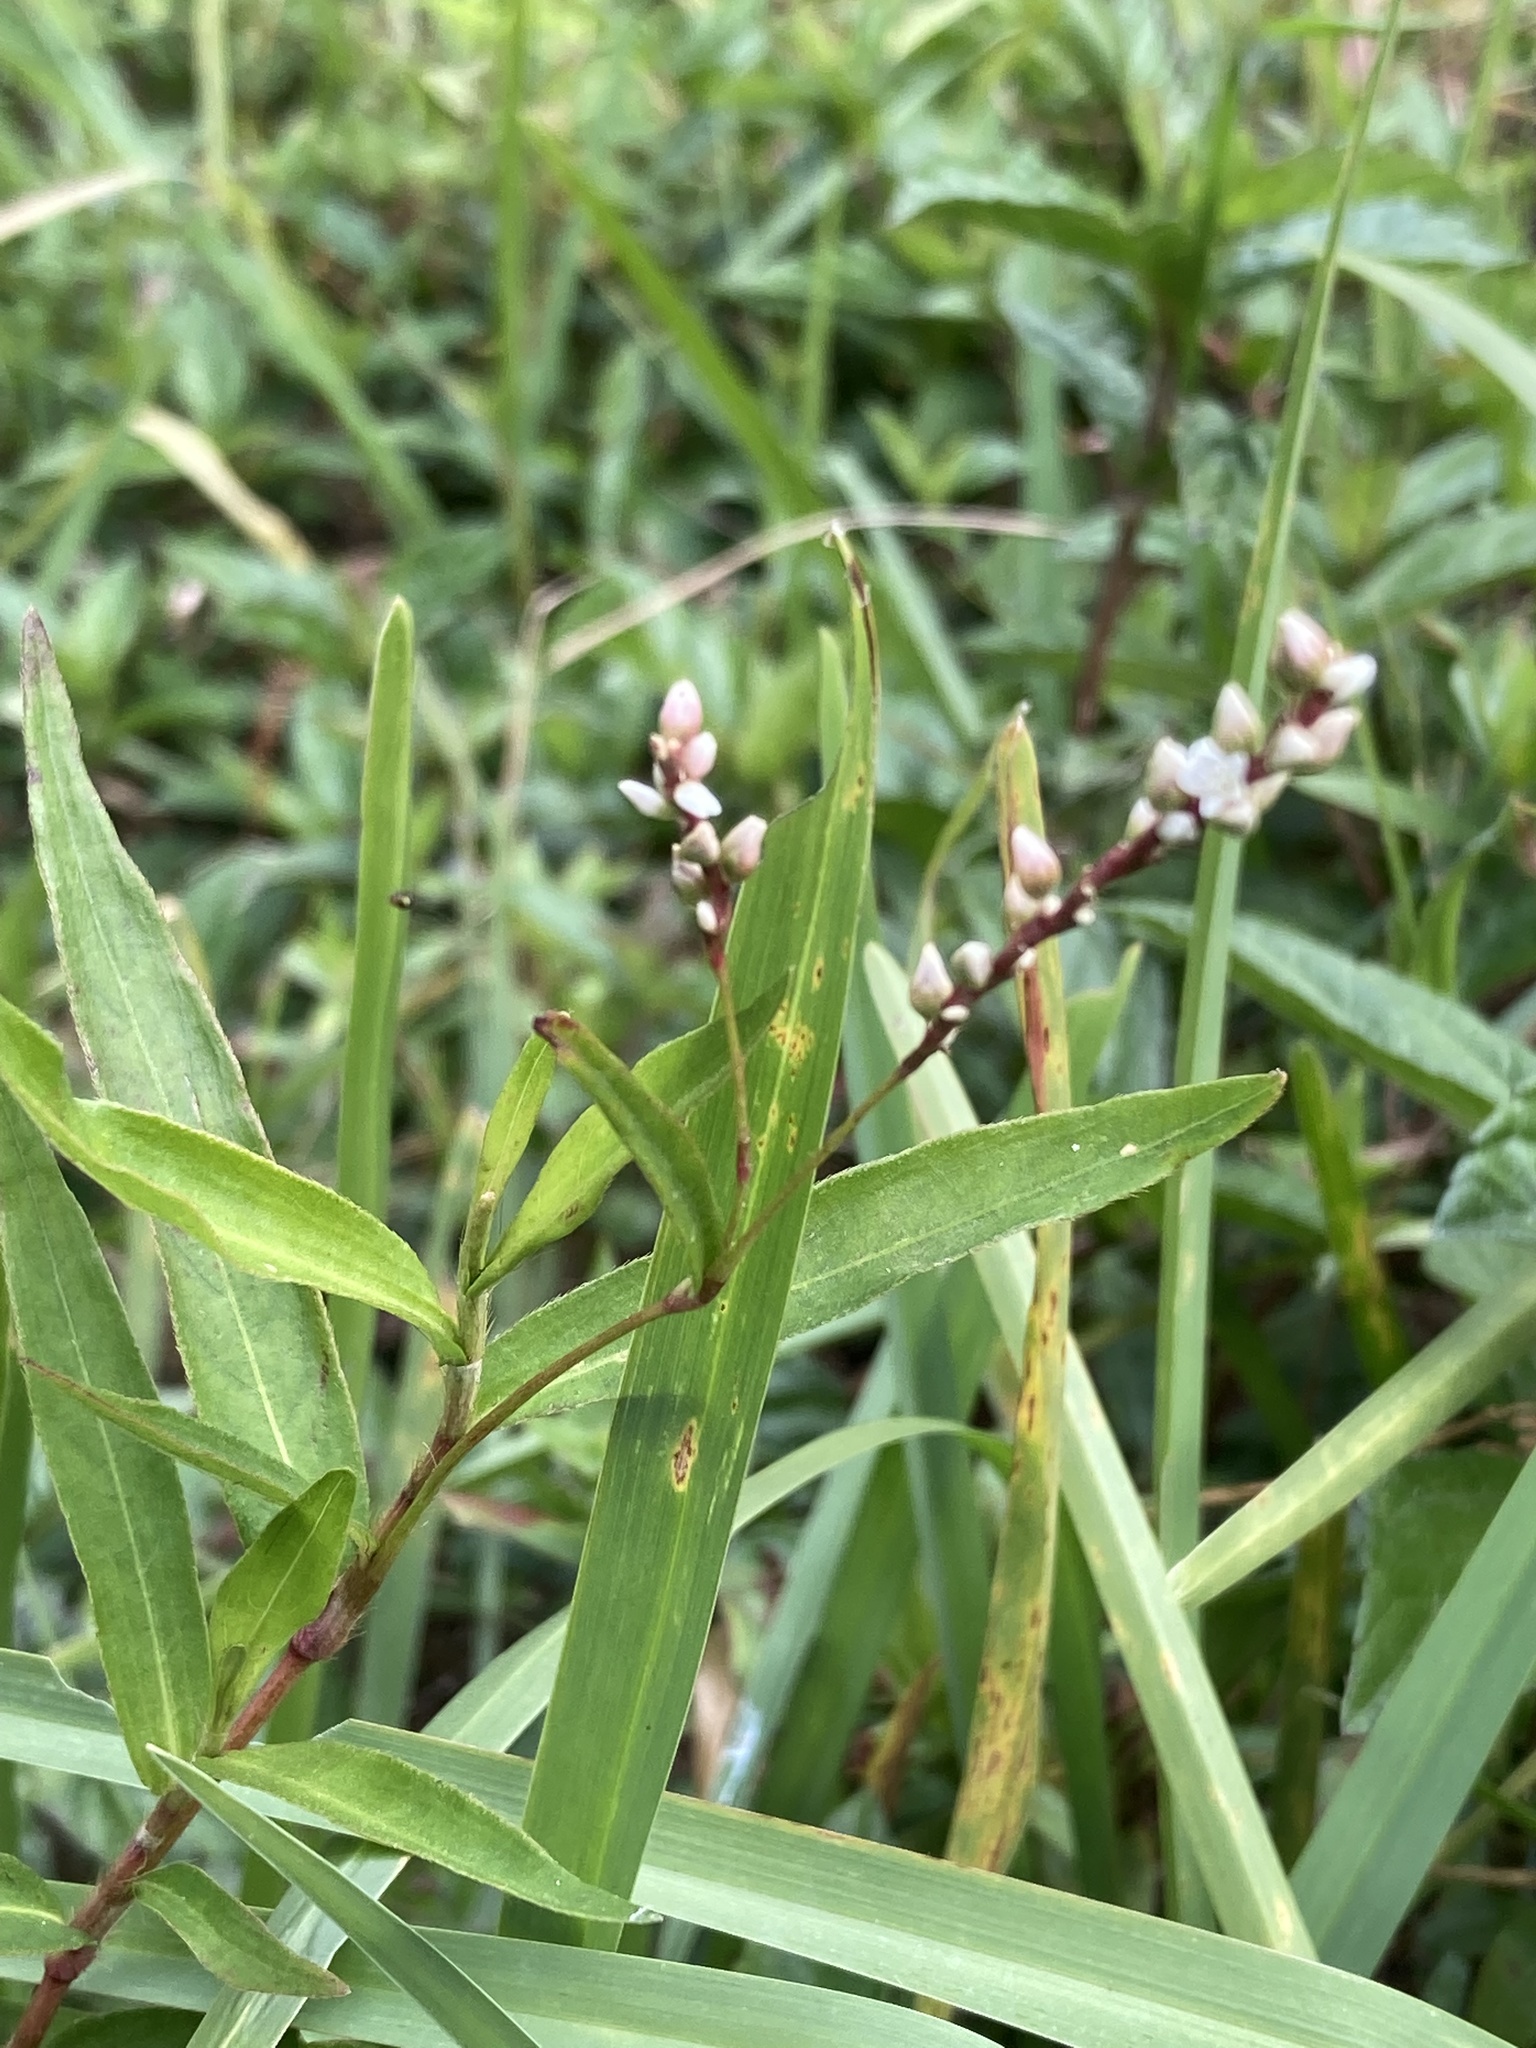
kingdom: Plantae
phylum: Tracheophyta
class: Magnoliopsida
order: Caryophyllales
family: Polygonaceae
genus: Persicaria
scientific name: Persicaria hydropiperoides
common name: Swamp smartweed
